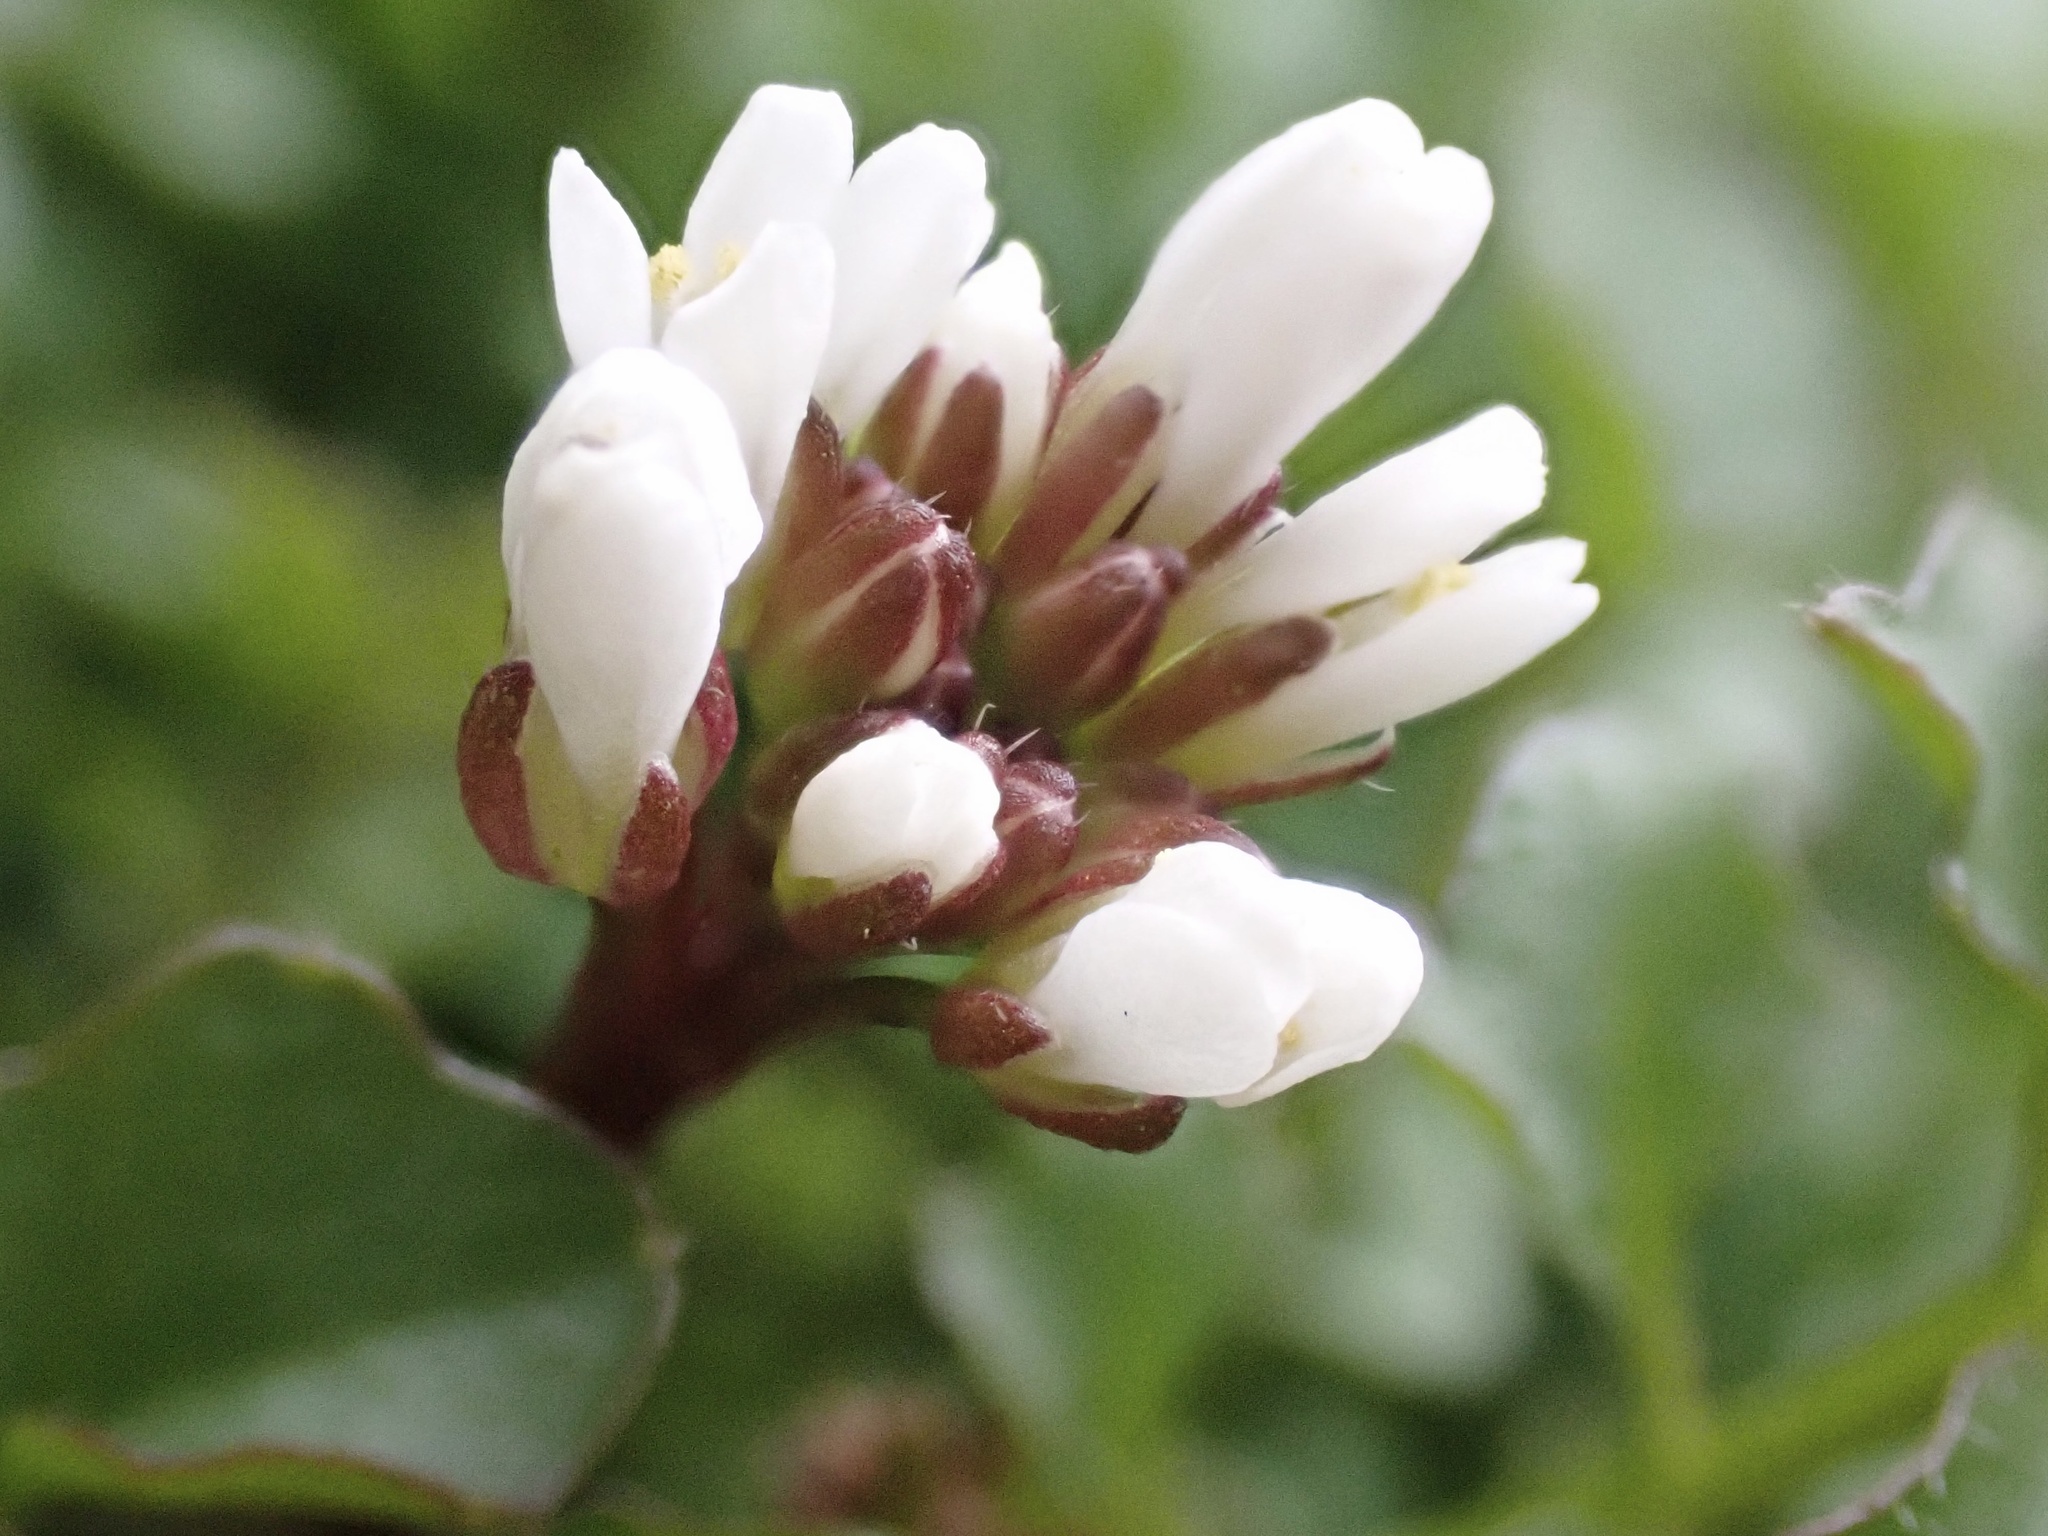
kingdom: Plantae
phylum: Tracheophyta
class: Magnoliopsida
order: Brassicales
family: Brassicaceae
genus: Cardamine
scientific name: Cardamine hirsuta
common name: Hairy bittercress
